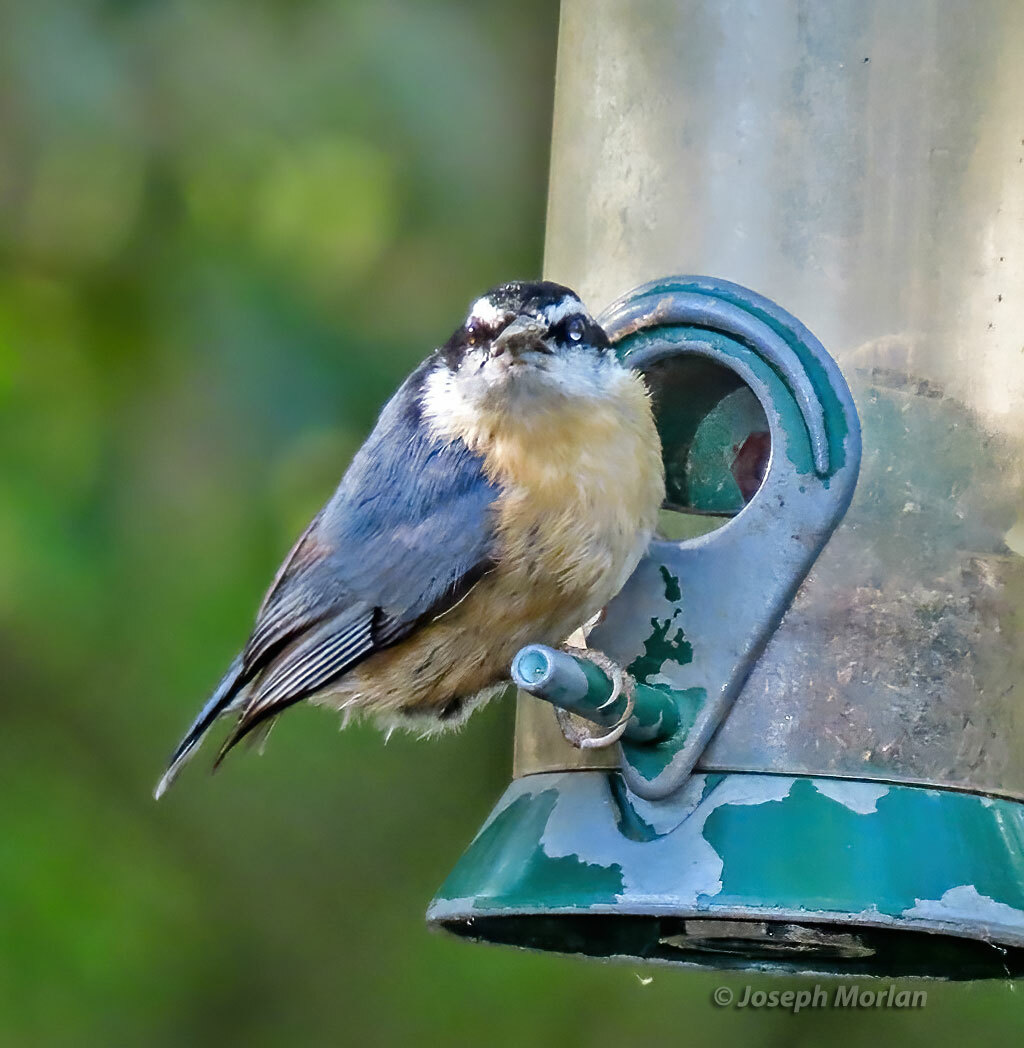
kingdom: Animalia
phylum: Chordata
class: Aves
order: Passeriformes
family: Sittidae
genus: Sitta
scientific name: Sitta canadensis
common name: Red-breasted nuthatch
